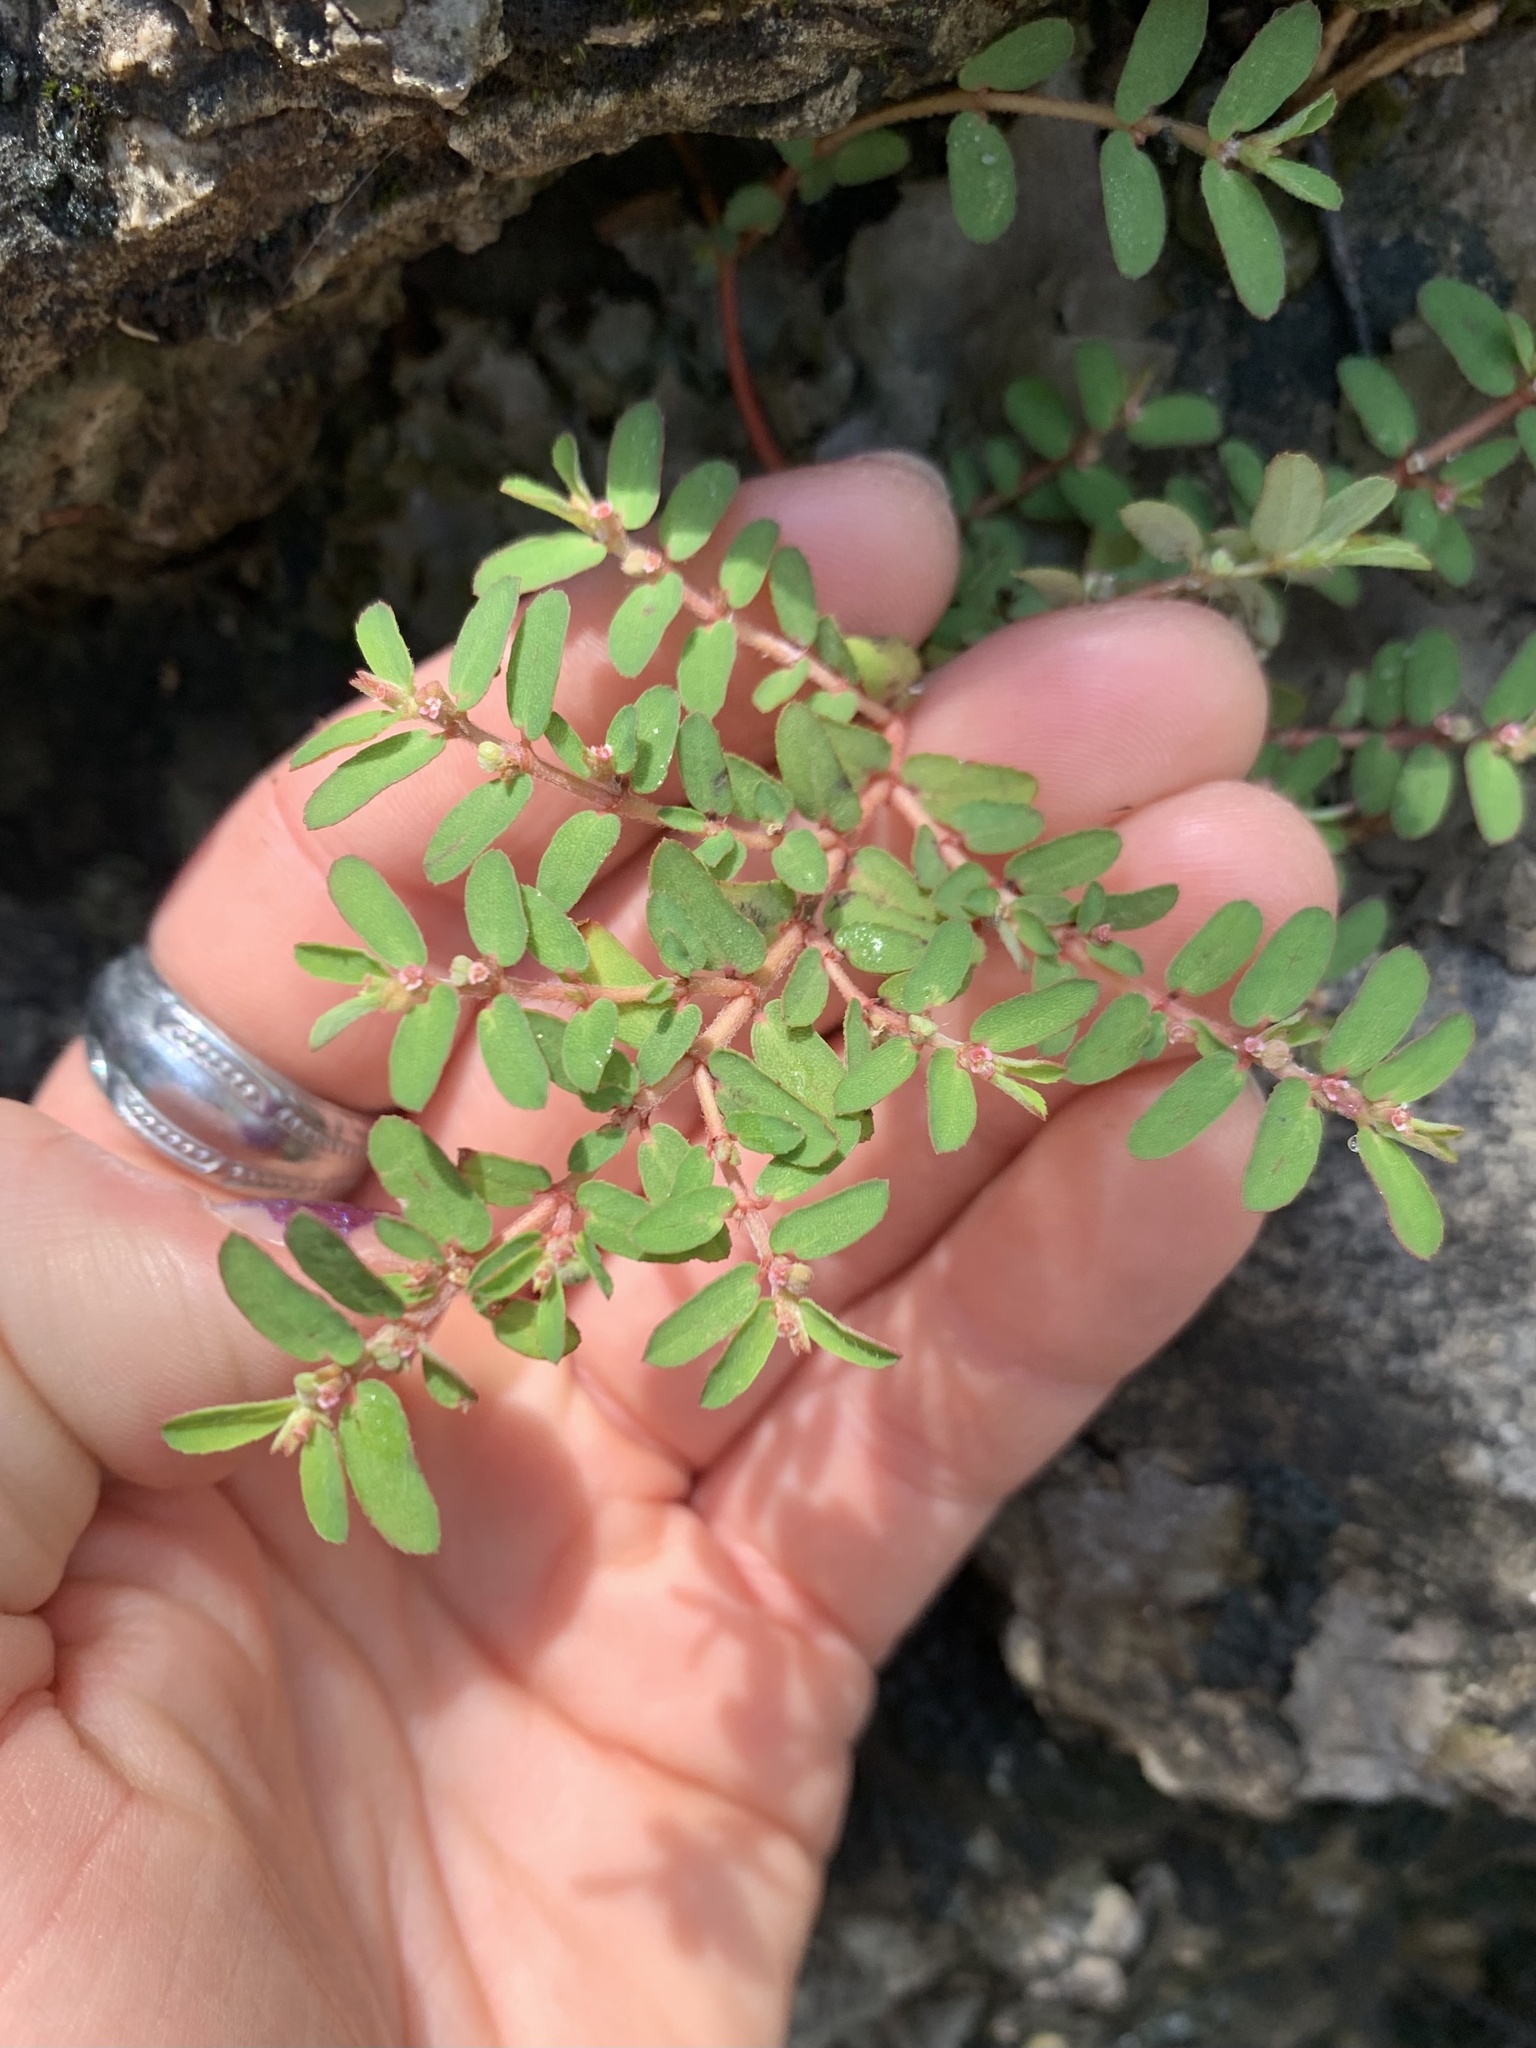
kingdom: Plantae
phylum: Tracheophyta
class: Magnoliopsida
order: Malpighiales
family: Euphorbiaceae
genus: Euphorbia
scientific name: Euphorbia maculata
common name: Spotted spurge
